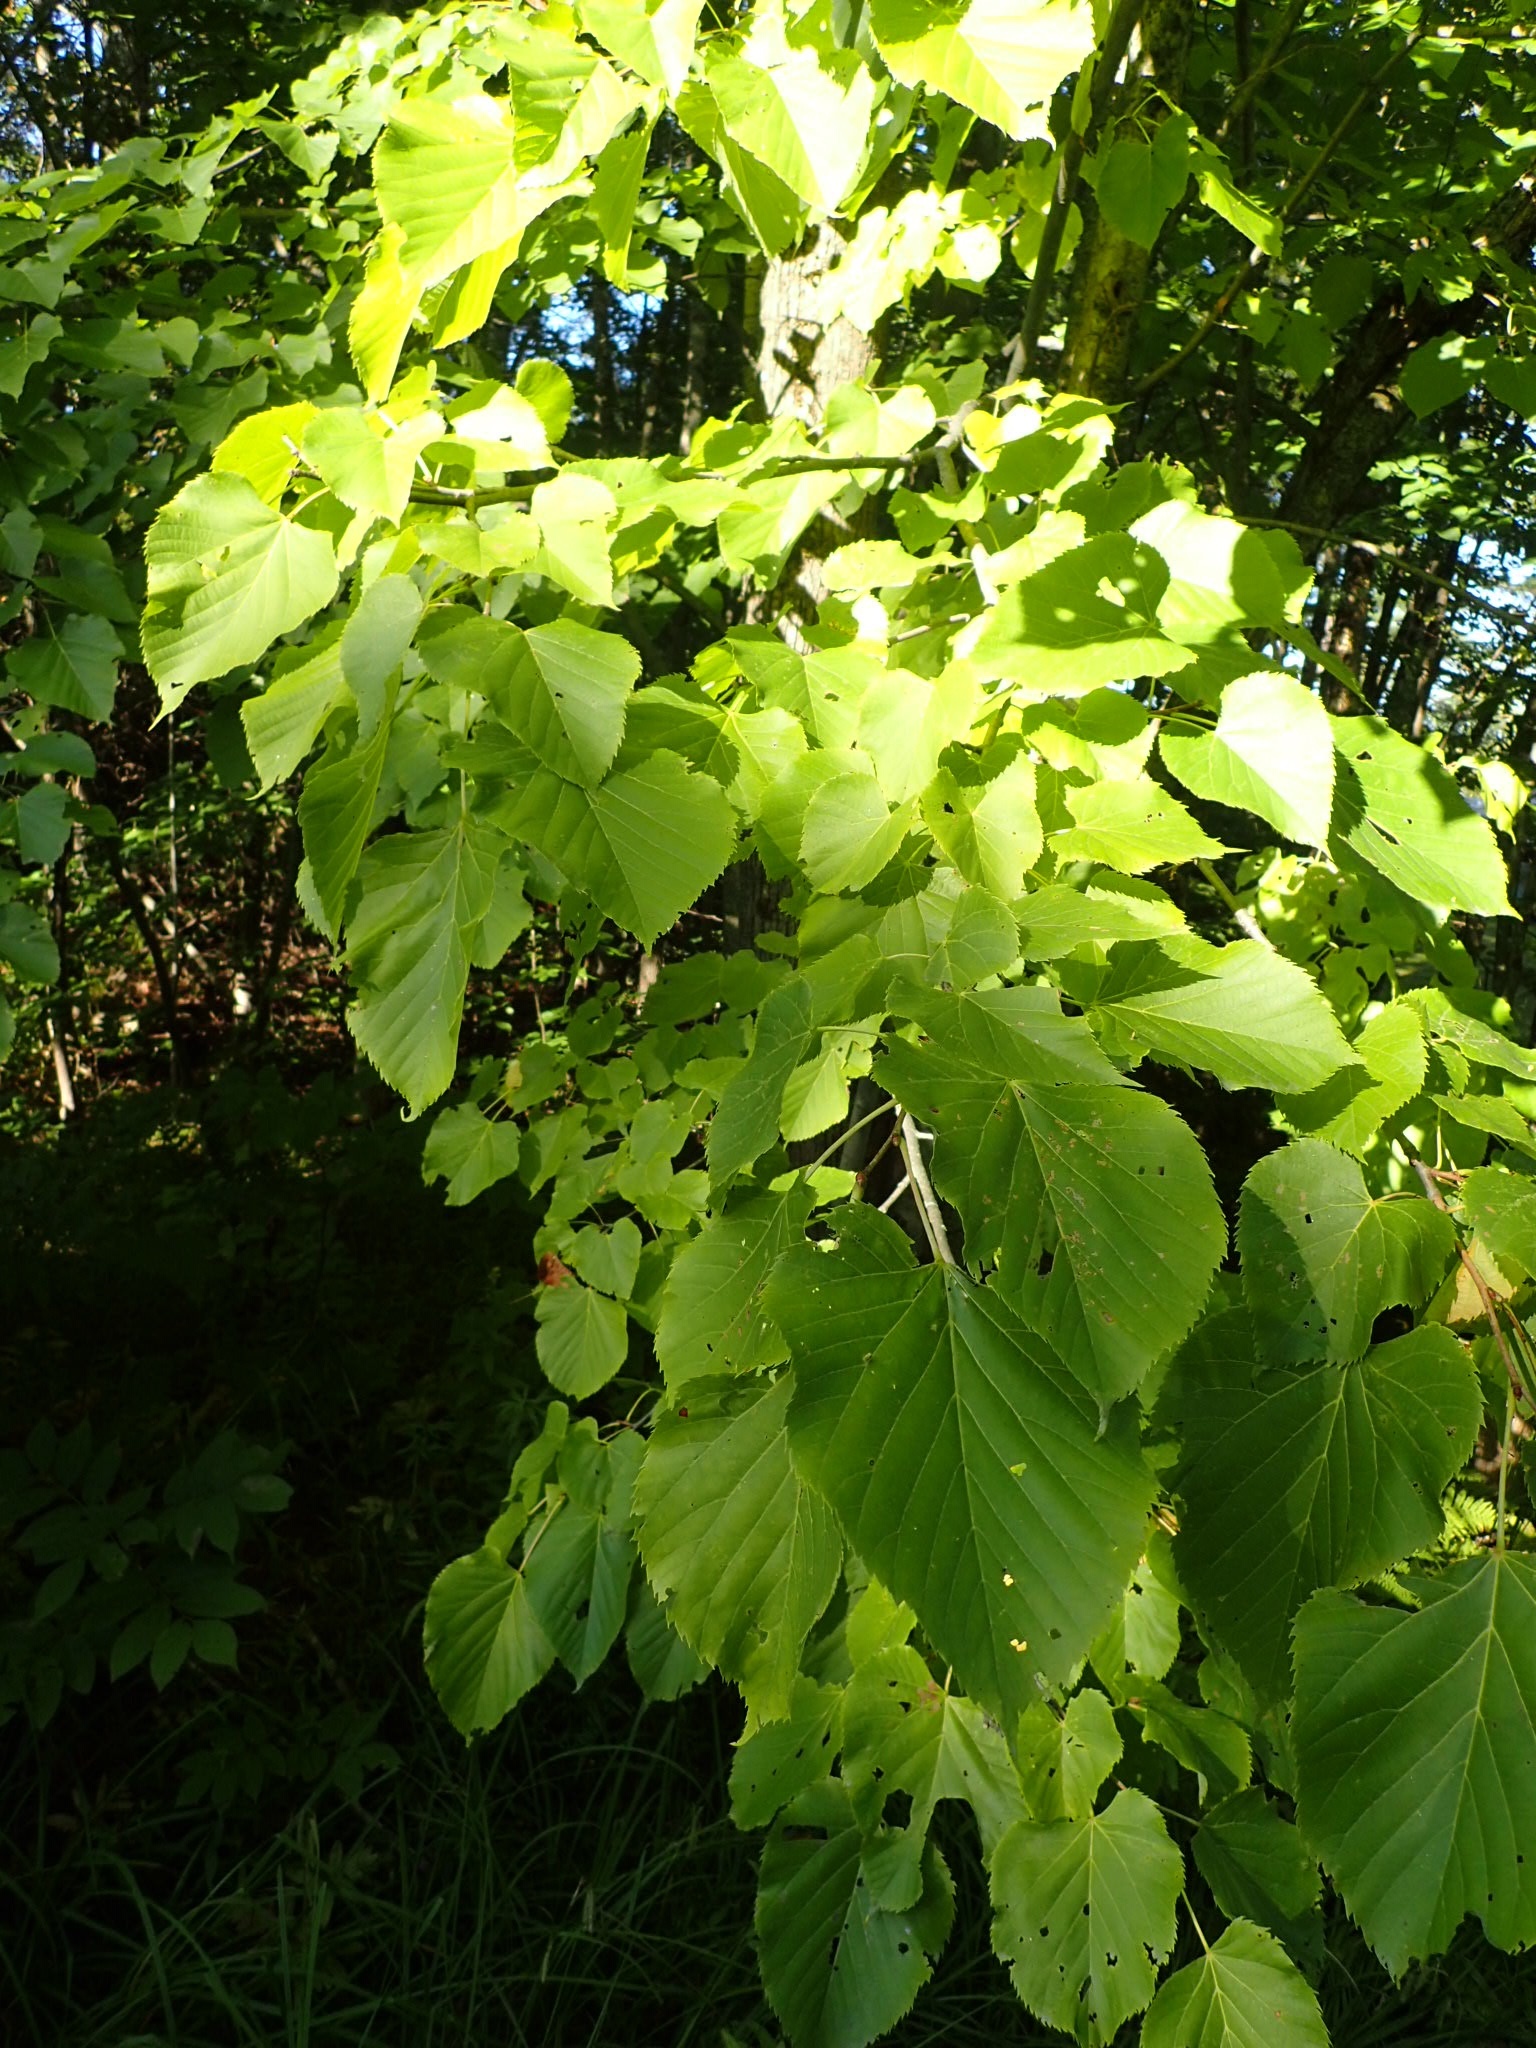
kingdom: Plantae
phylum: Tracheophyta
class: Magnoliopsida
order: Malvales
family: Malvaceae
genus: Tilia
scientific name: Tilia americana
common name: Basswood
